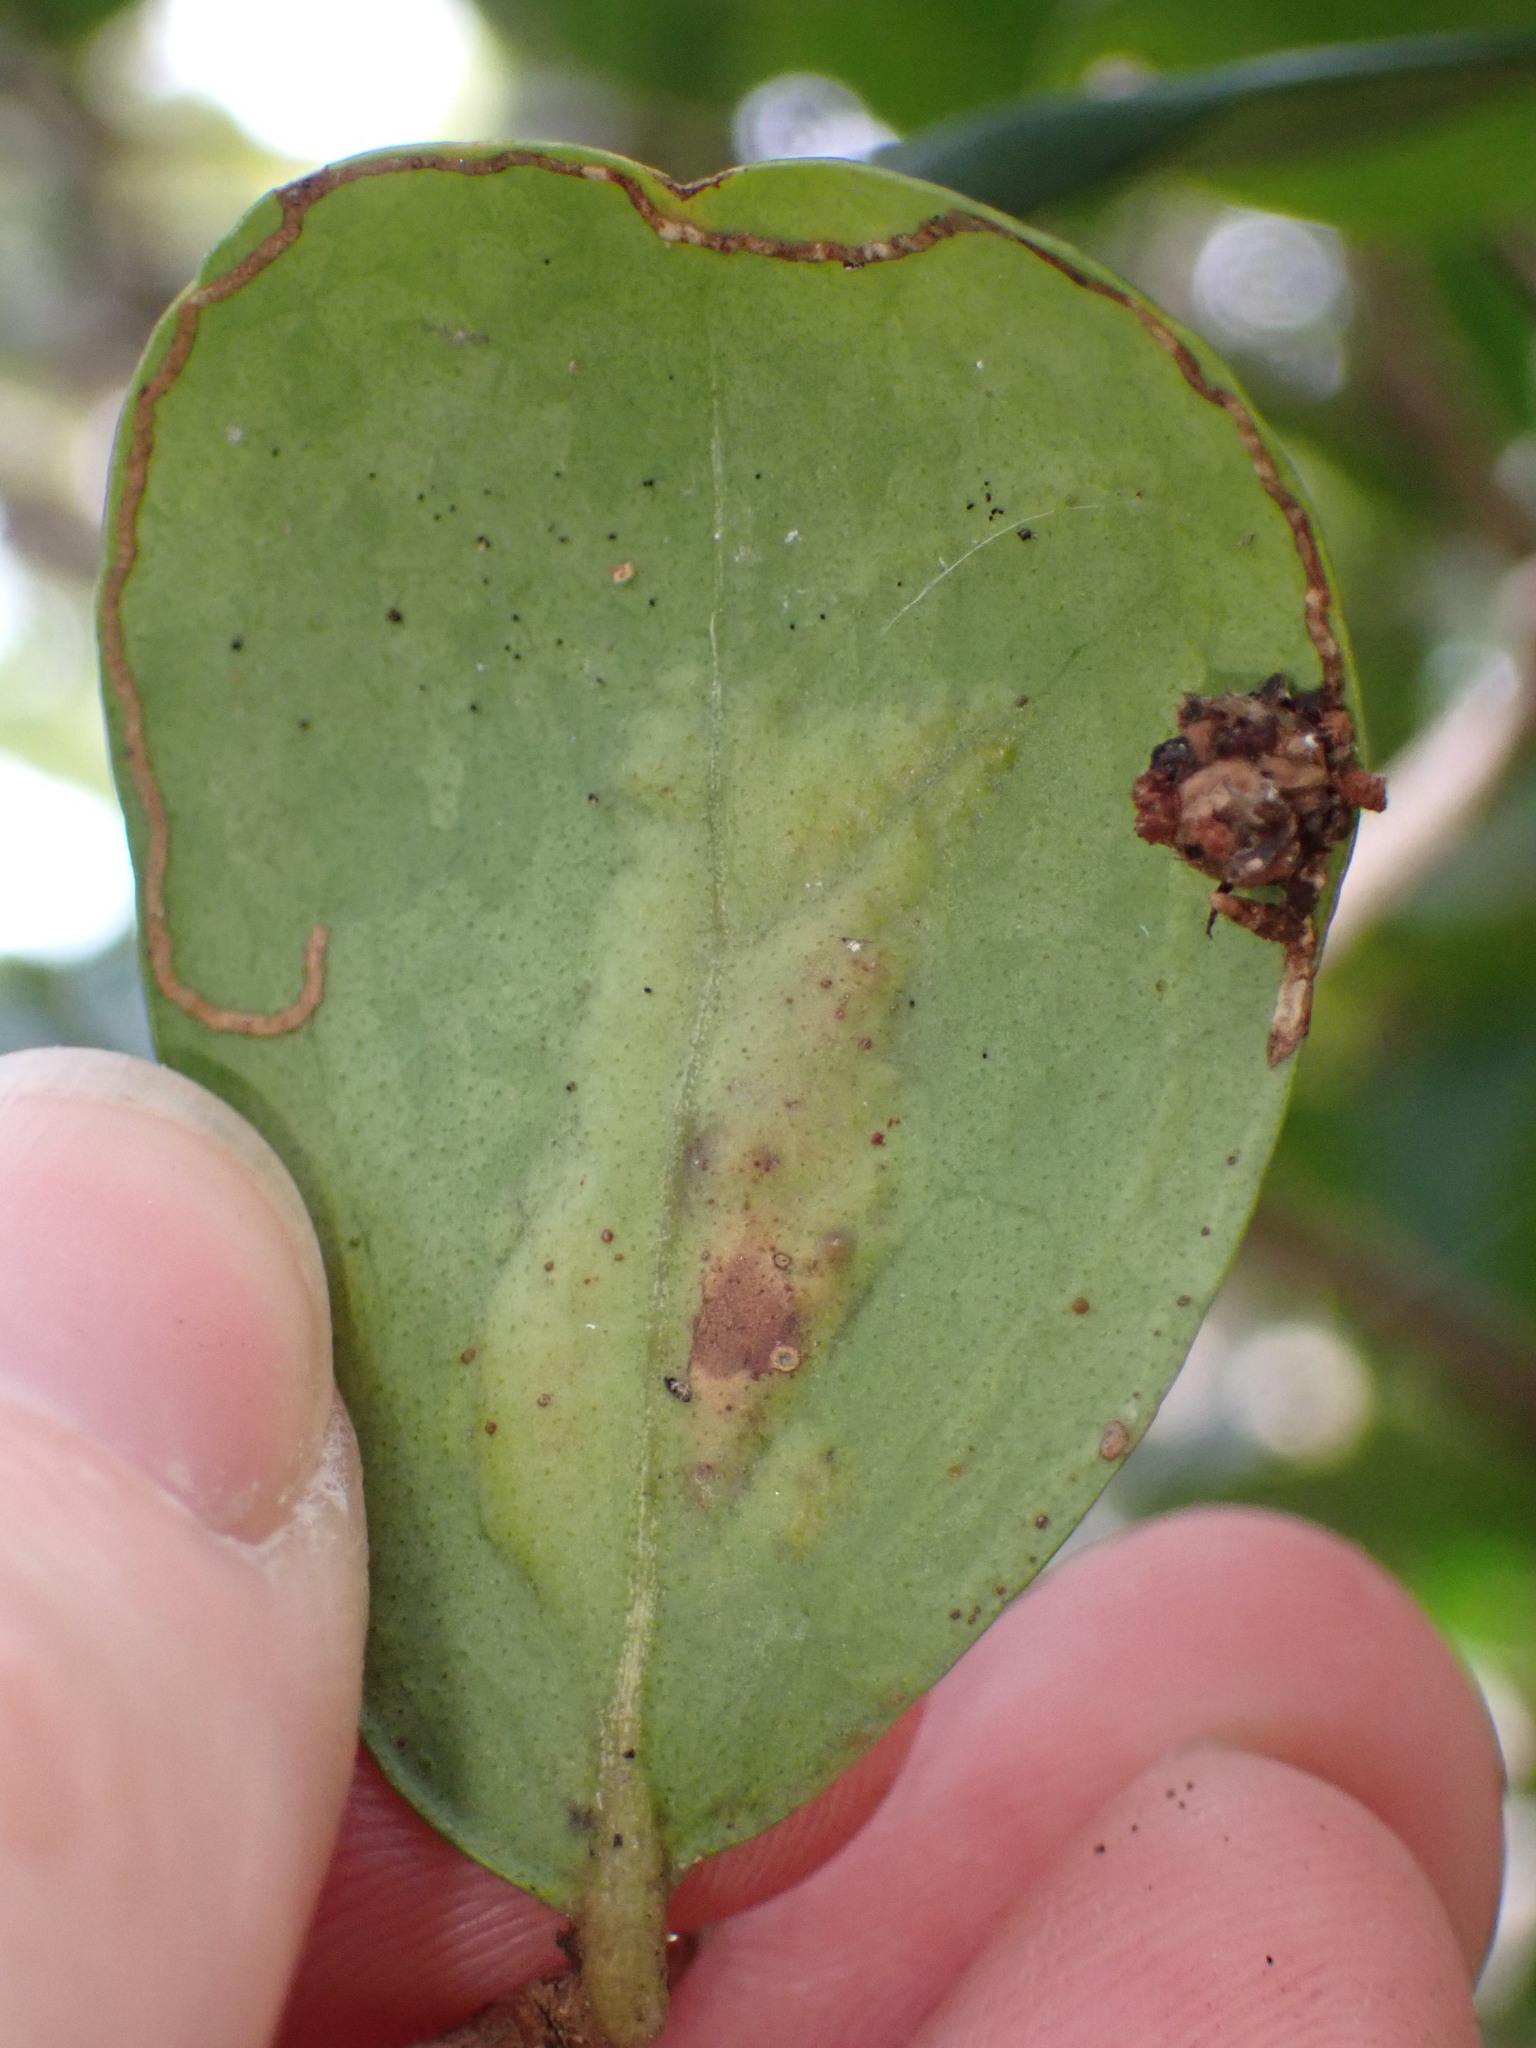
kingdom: Animalia
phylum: Arthropoda
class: Insecta
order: Lepidoptera
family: Gracillariidae
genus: Chilocampyla
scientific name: Chilocampyla dyariella
